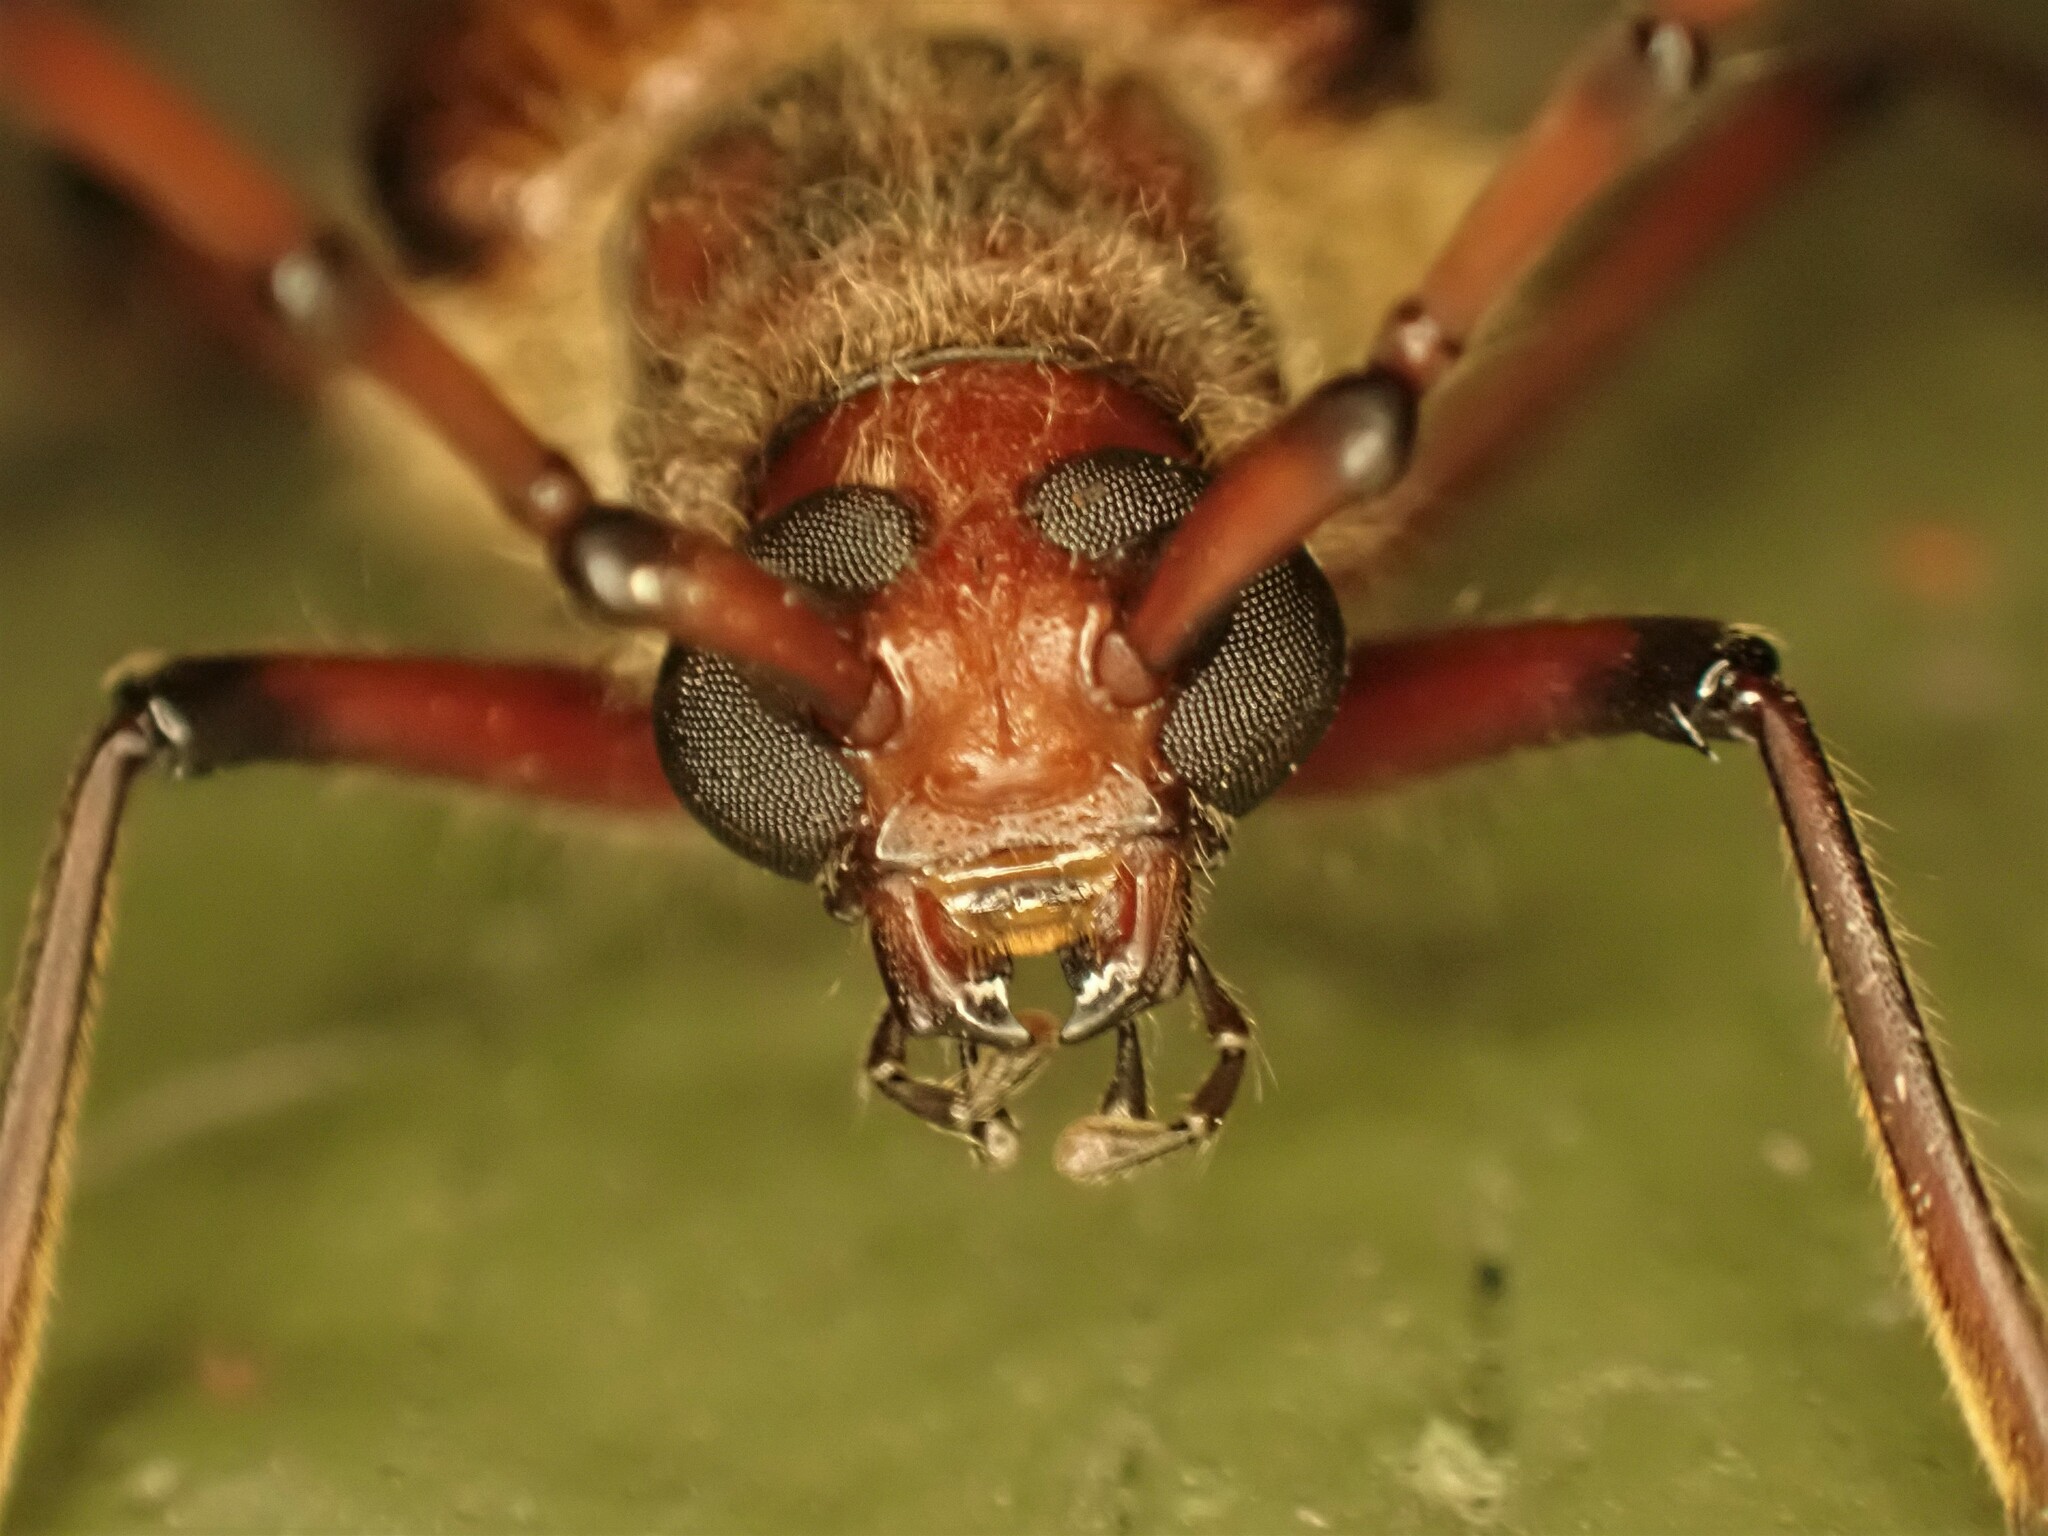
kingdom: Animalia
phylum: Arthropoda
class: Insecta
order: Coleoptera
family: Cerambycidae
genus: Ochrocydus
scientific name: Ochrocydus huttoni
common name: Kanuka longhorn
